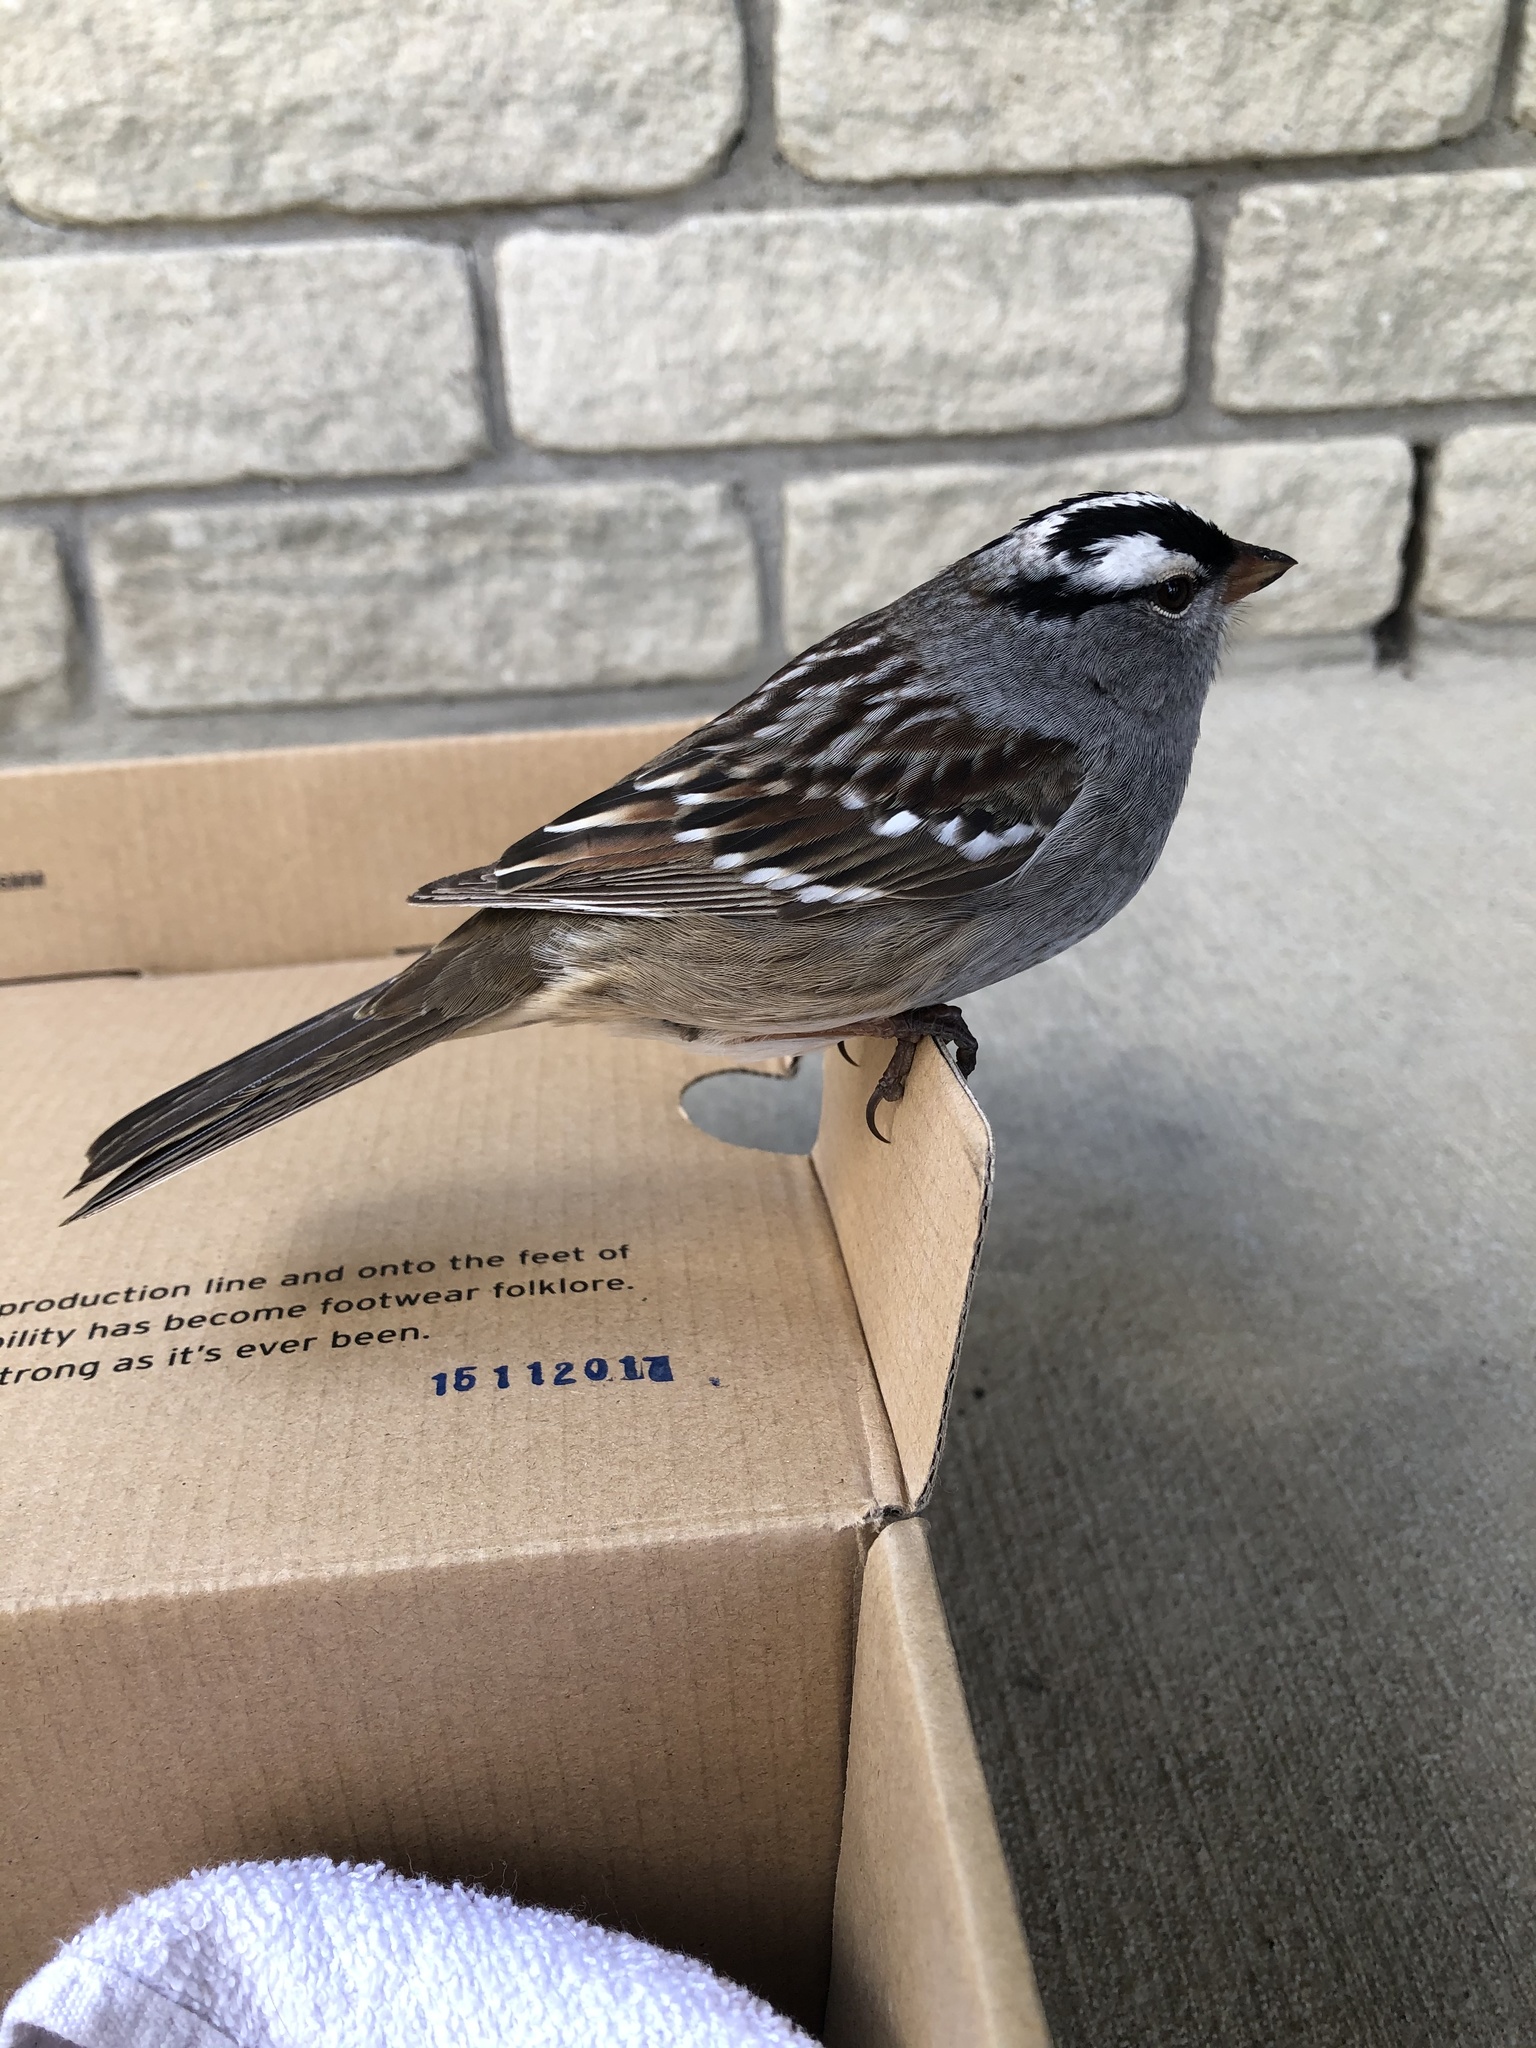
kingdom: Animalia
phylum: Chordata
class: Aves
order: Passeriformes
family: Passerellidae
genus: Zonotrichia
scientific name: Zonotrichia leucophrys
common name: White-crowned sparrow
